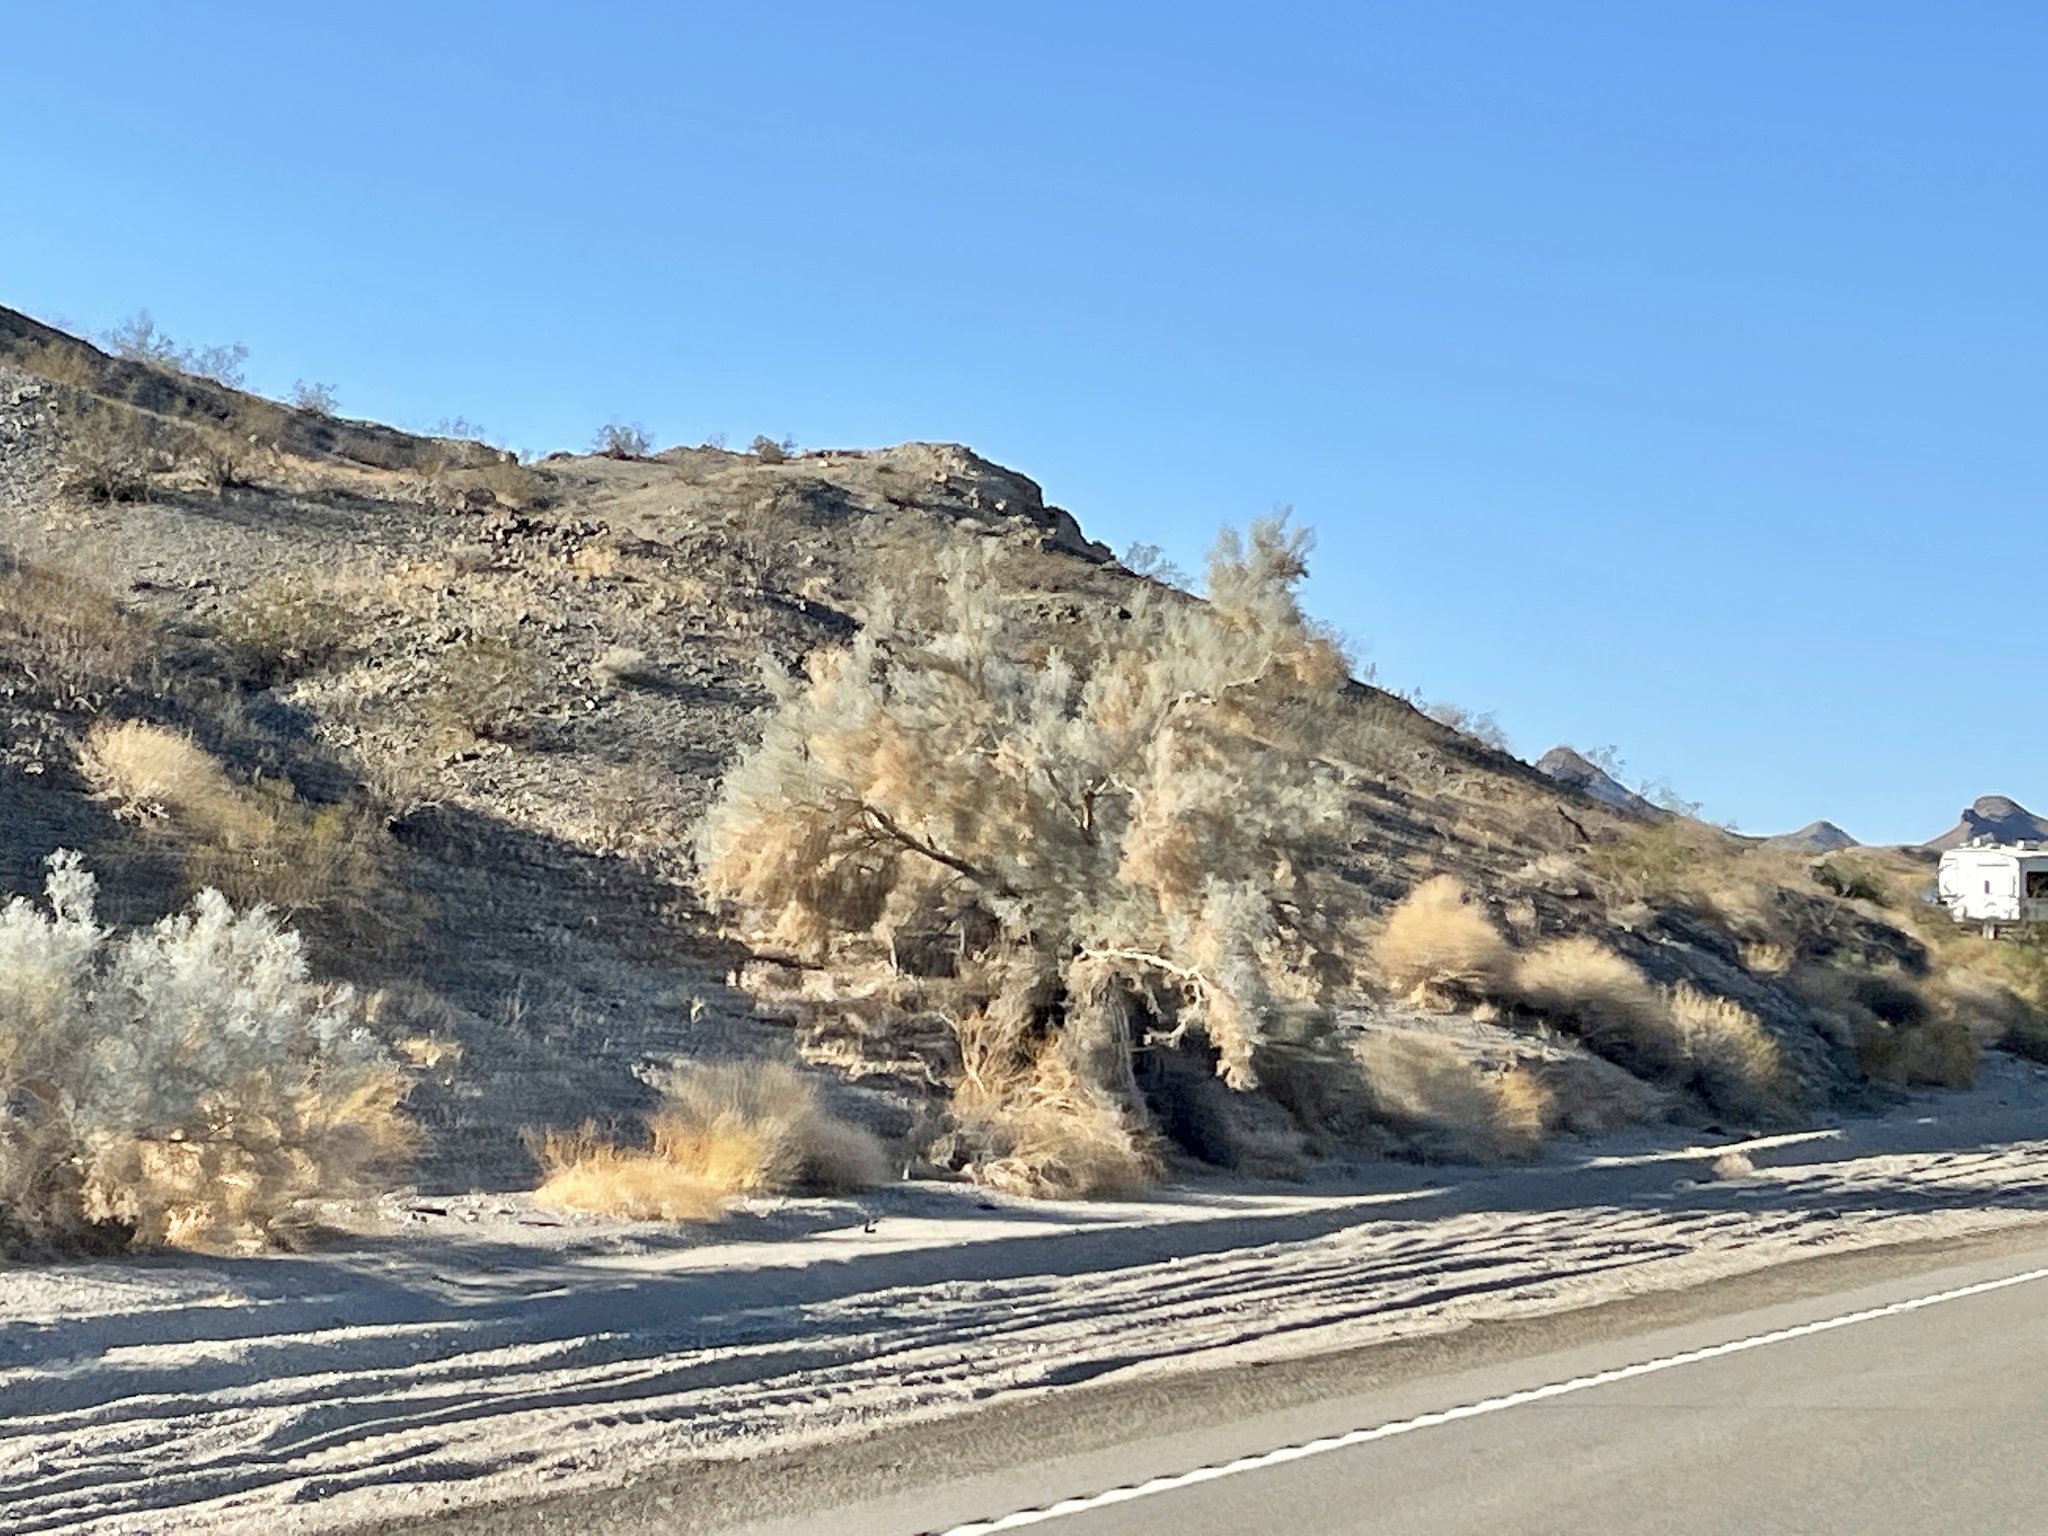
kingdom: Plantae
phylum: Tracheophyta
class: Magnoliopsida
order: Fabales
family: Fabaceae
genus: Psorothamnus
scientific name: Psorothamnus spinosus
